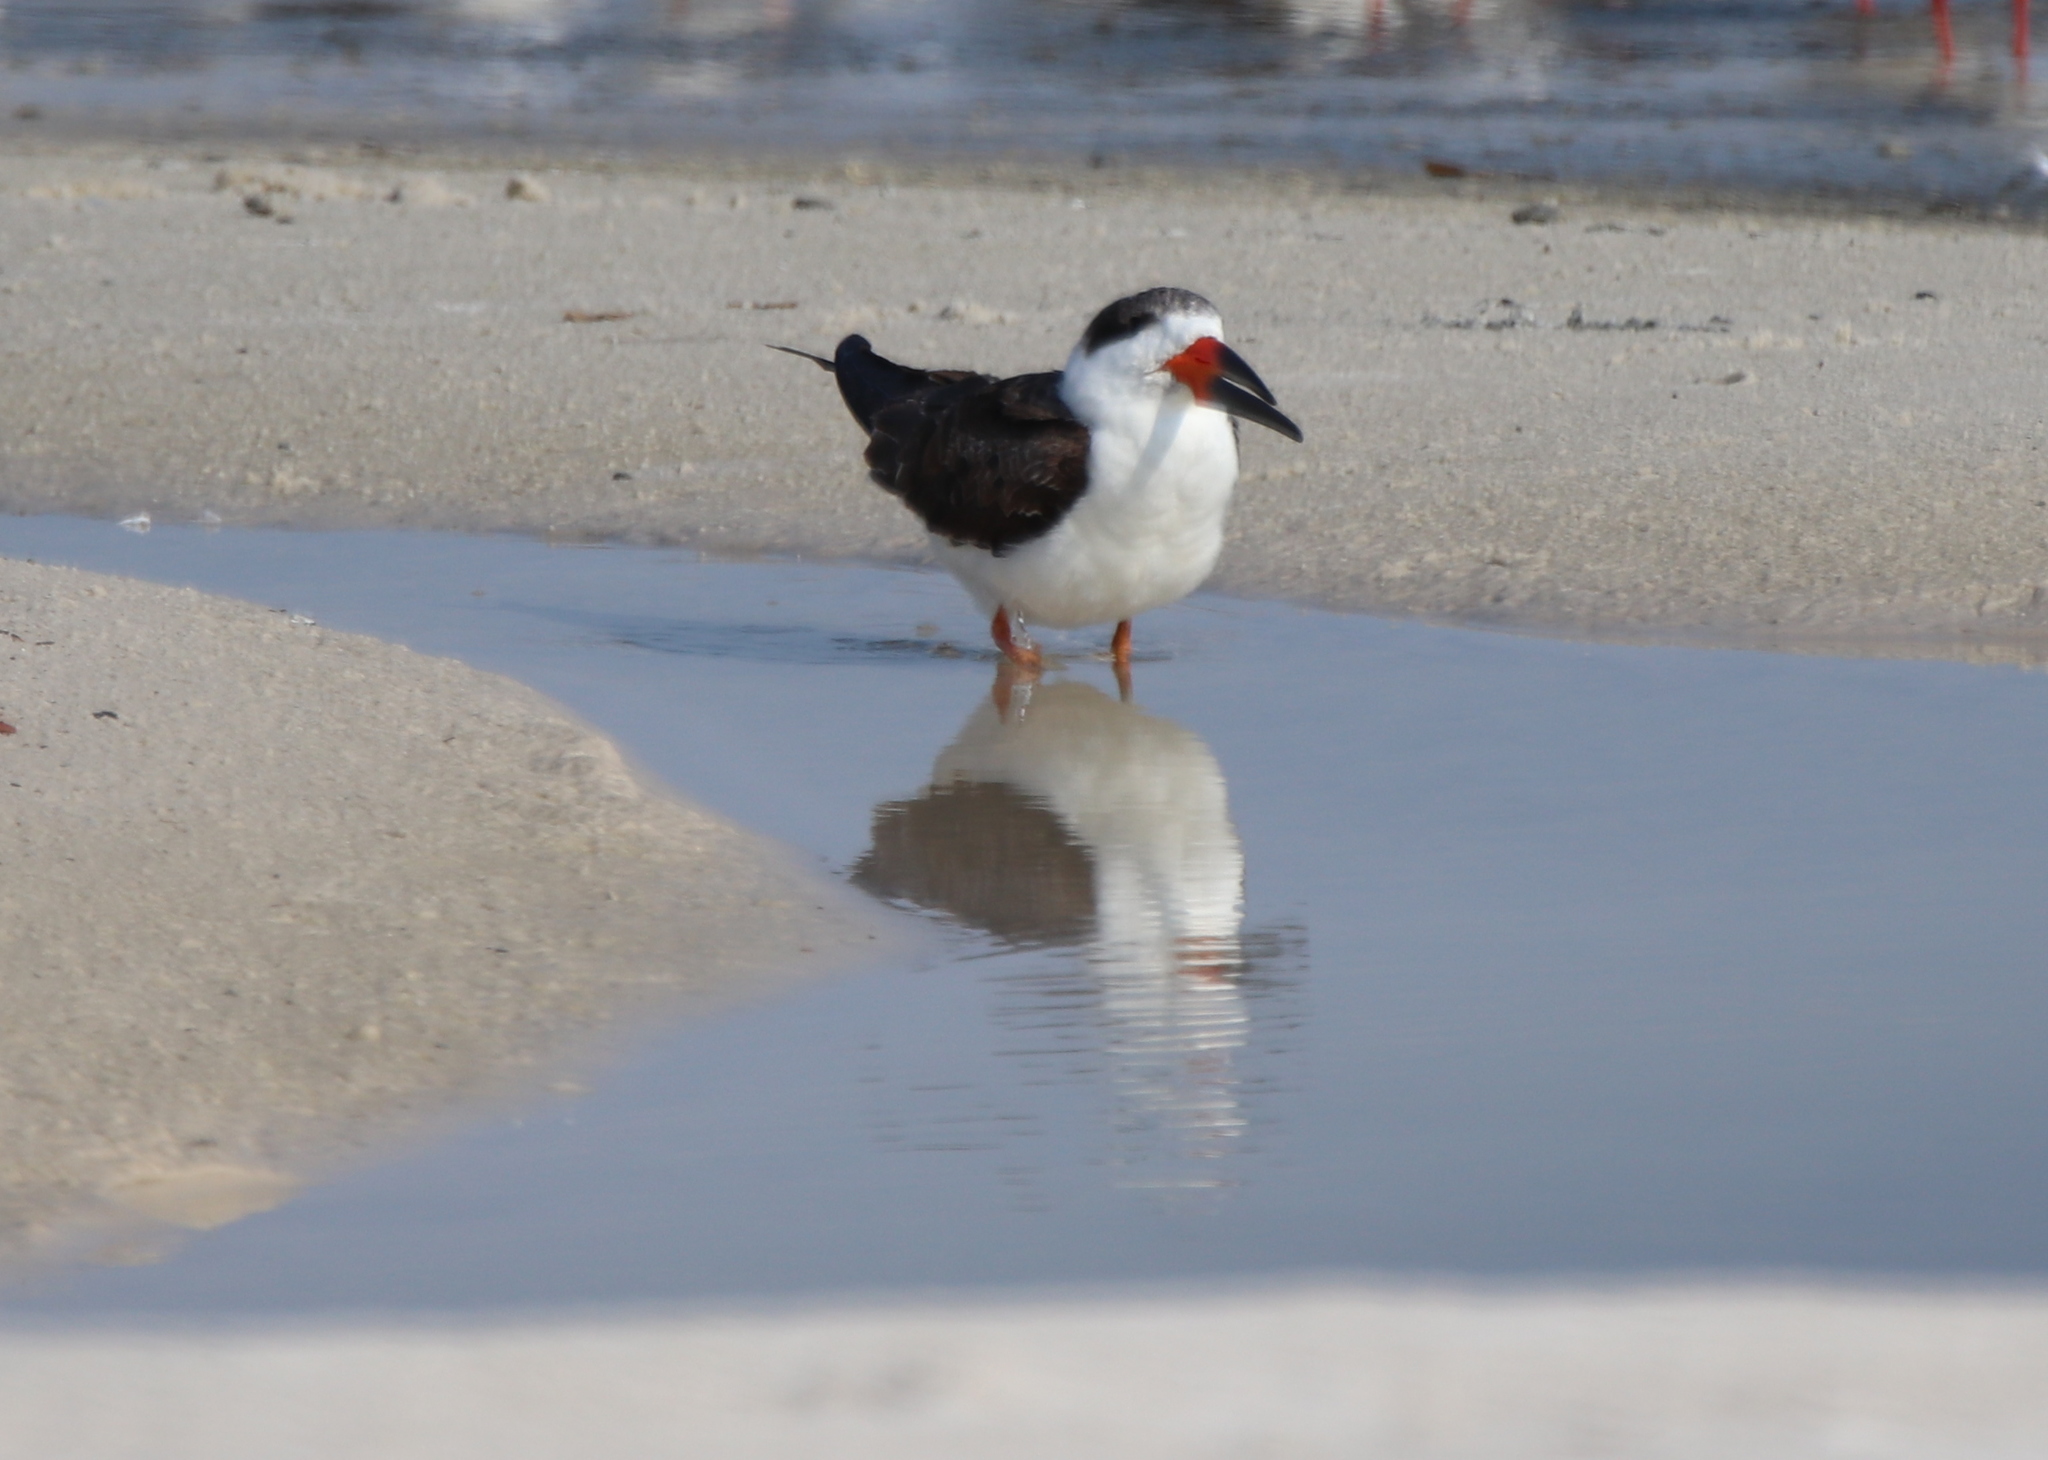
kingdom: Animalia
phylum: Chordata
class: Aves
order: Charadriiformes
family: Laridae
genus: Rynchops
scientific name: Rynchops niger
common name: Black skimmer
